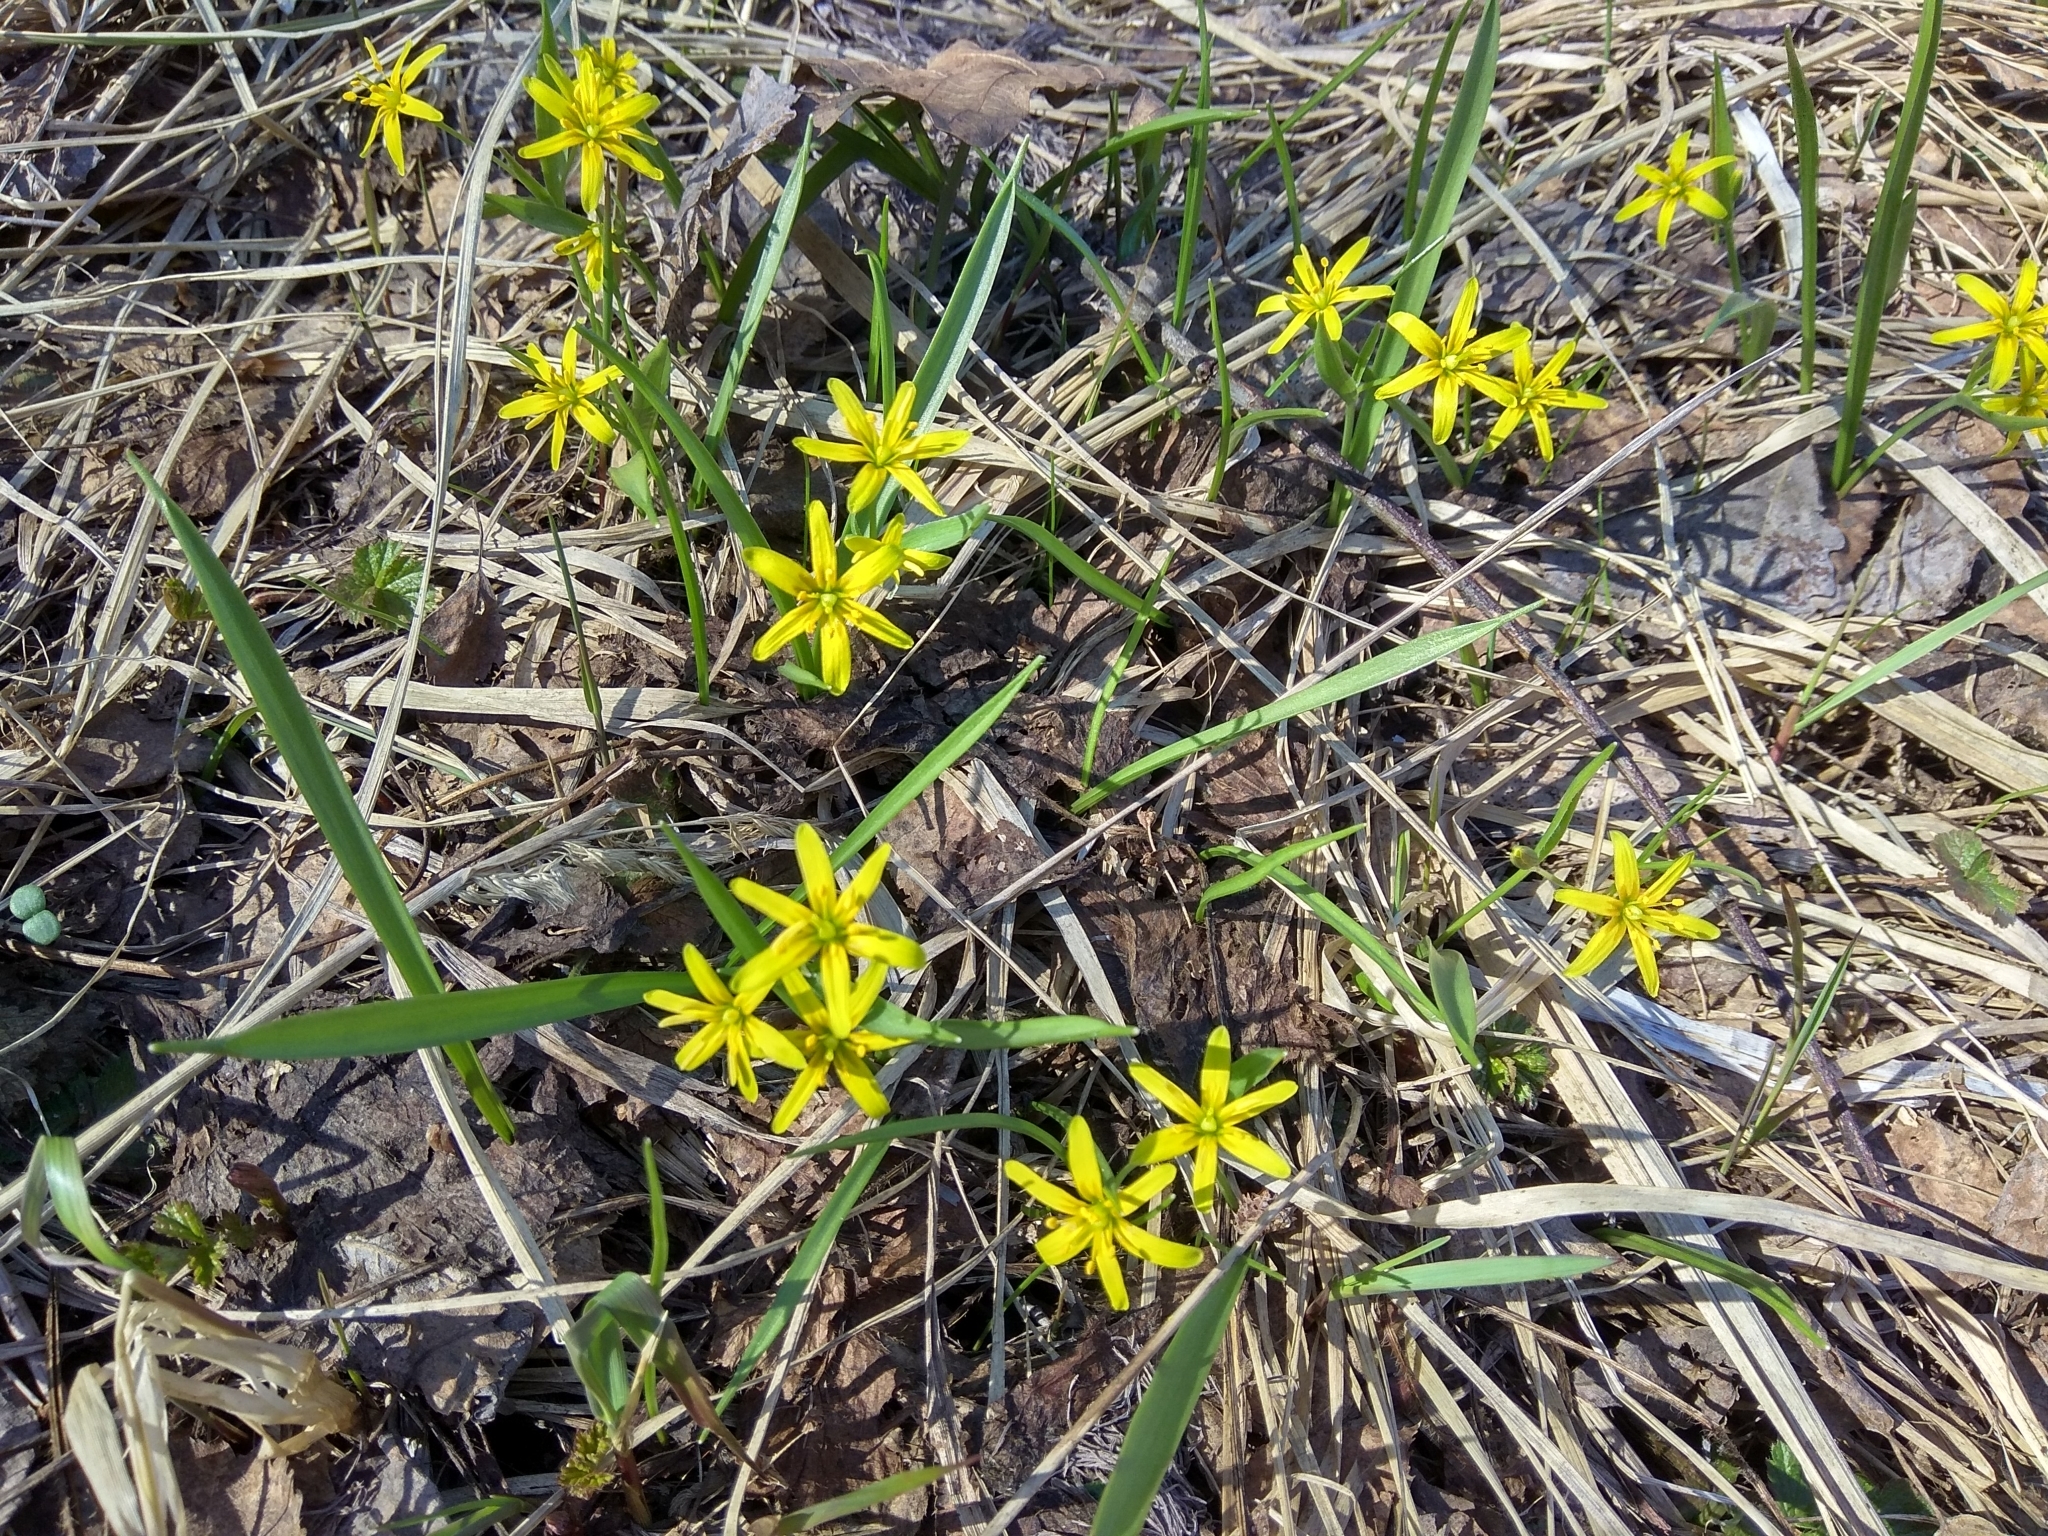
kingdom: Plantae
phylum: Tracheophyta
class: Liliopsida
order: Liliales
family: Liliaceae
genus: Gagea
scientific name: Gagea lutea
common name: Yellow star-of-bethlehem
